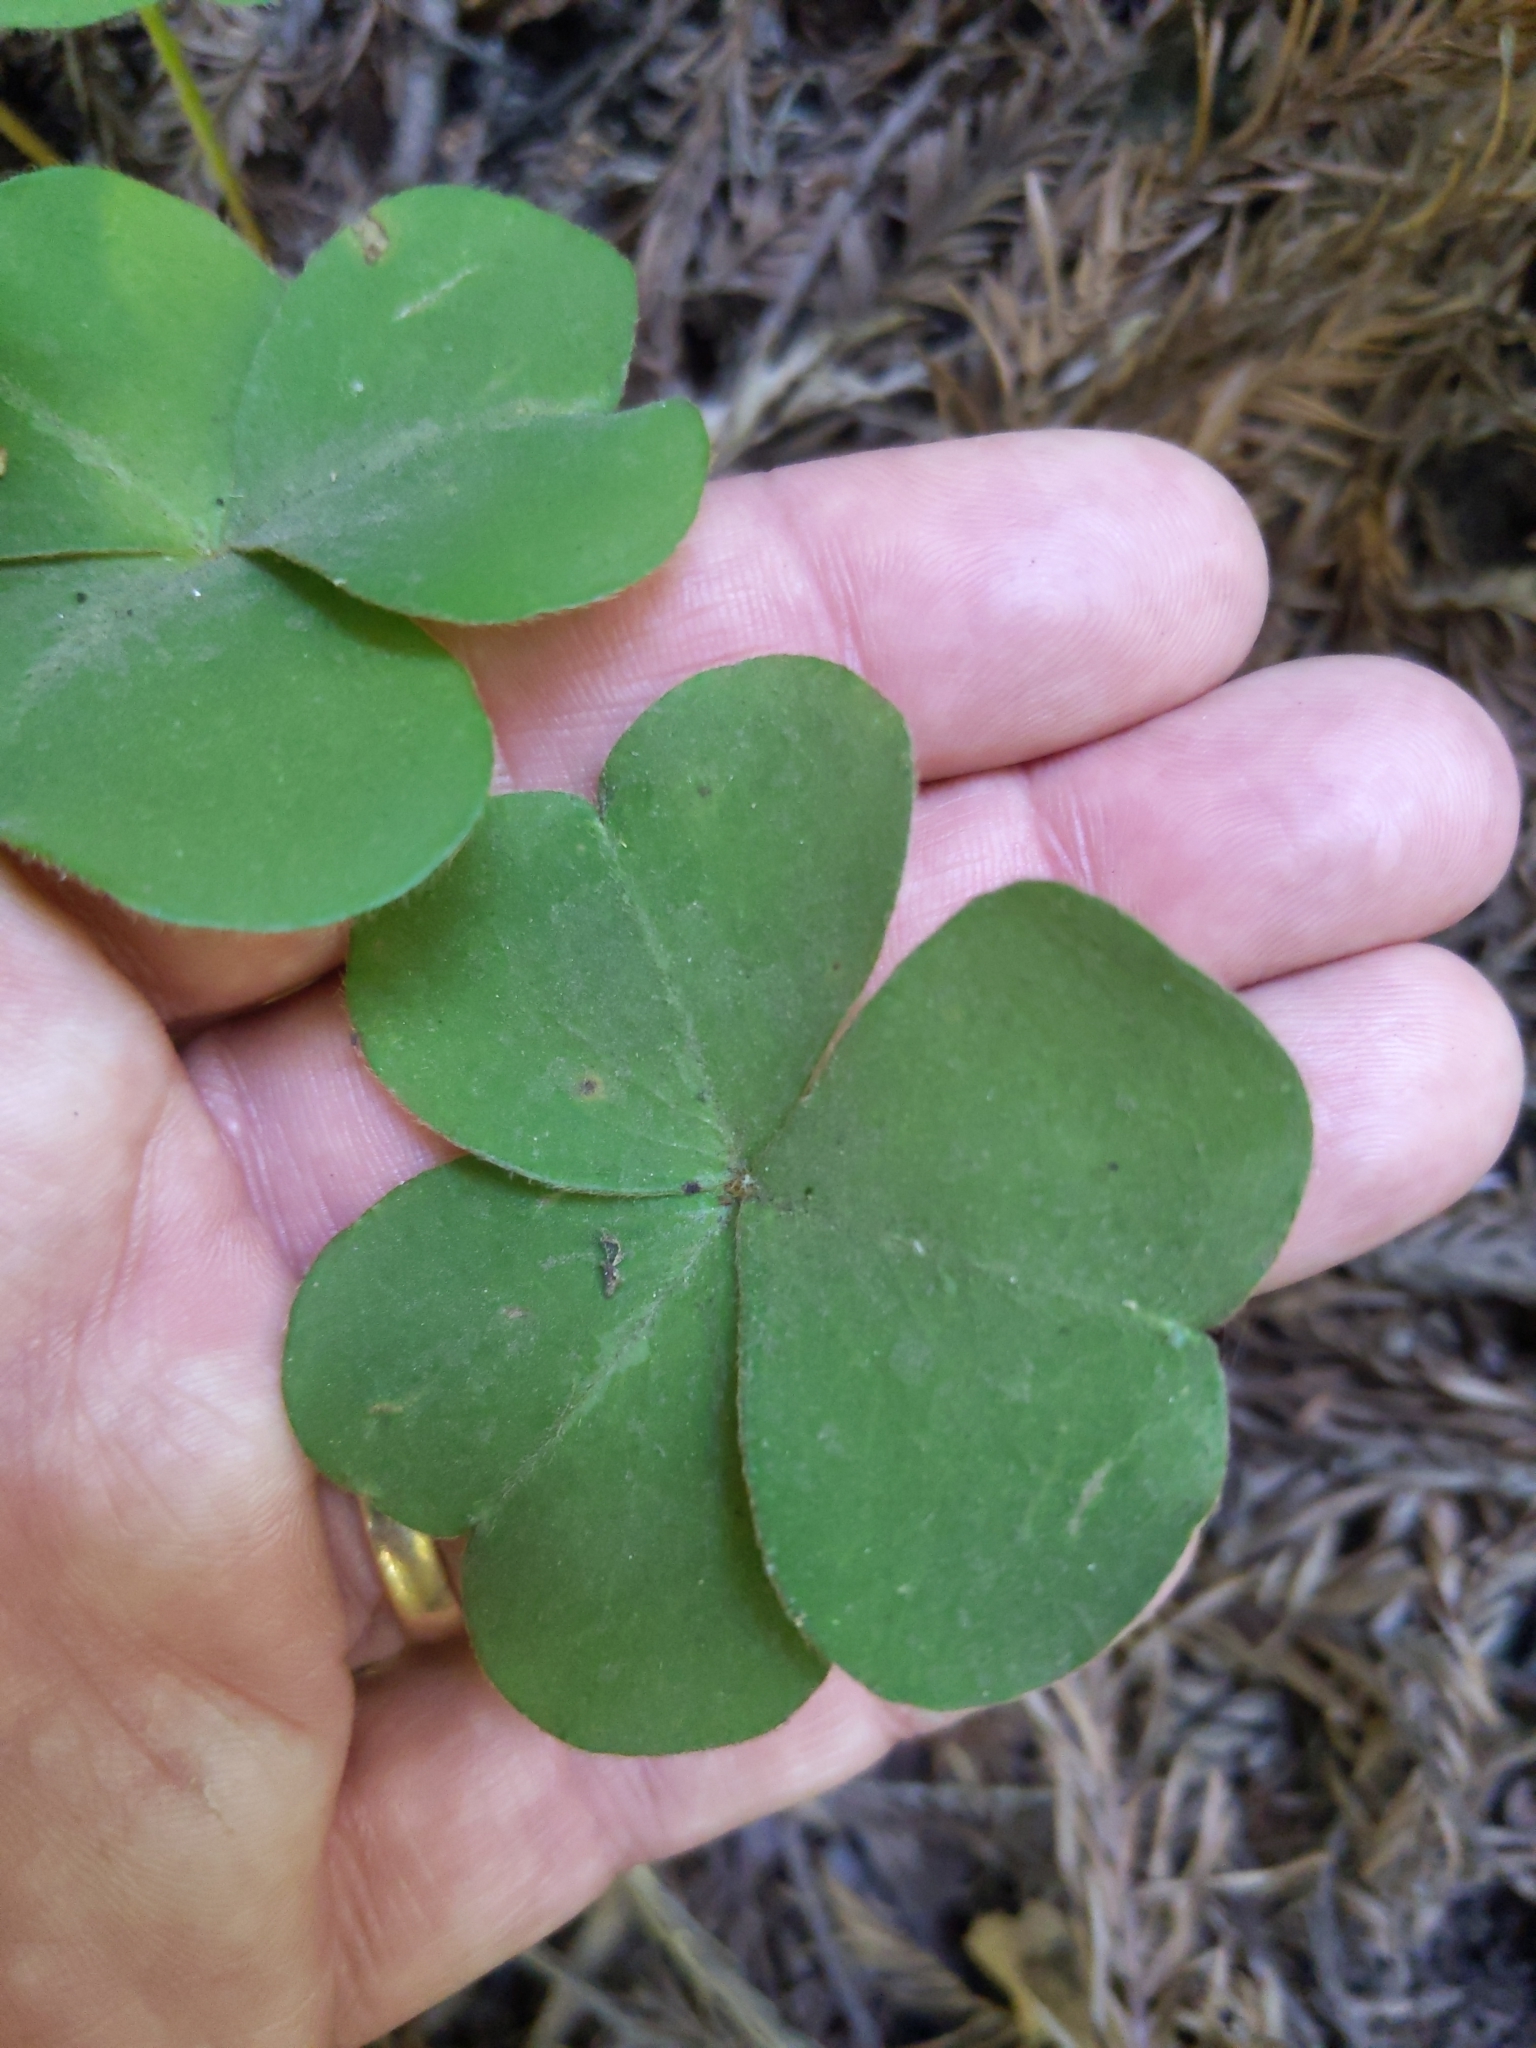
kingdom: Plantae
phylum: Tracheophyta
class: Magnoliopsida
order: Oxalidales
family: Oxalidaceae
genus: Oxalis
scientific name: Oxalis oregana
